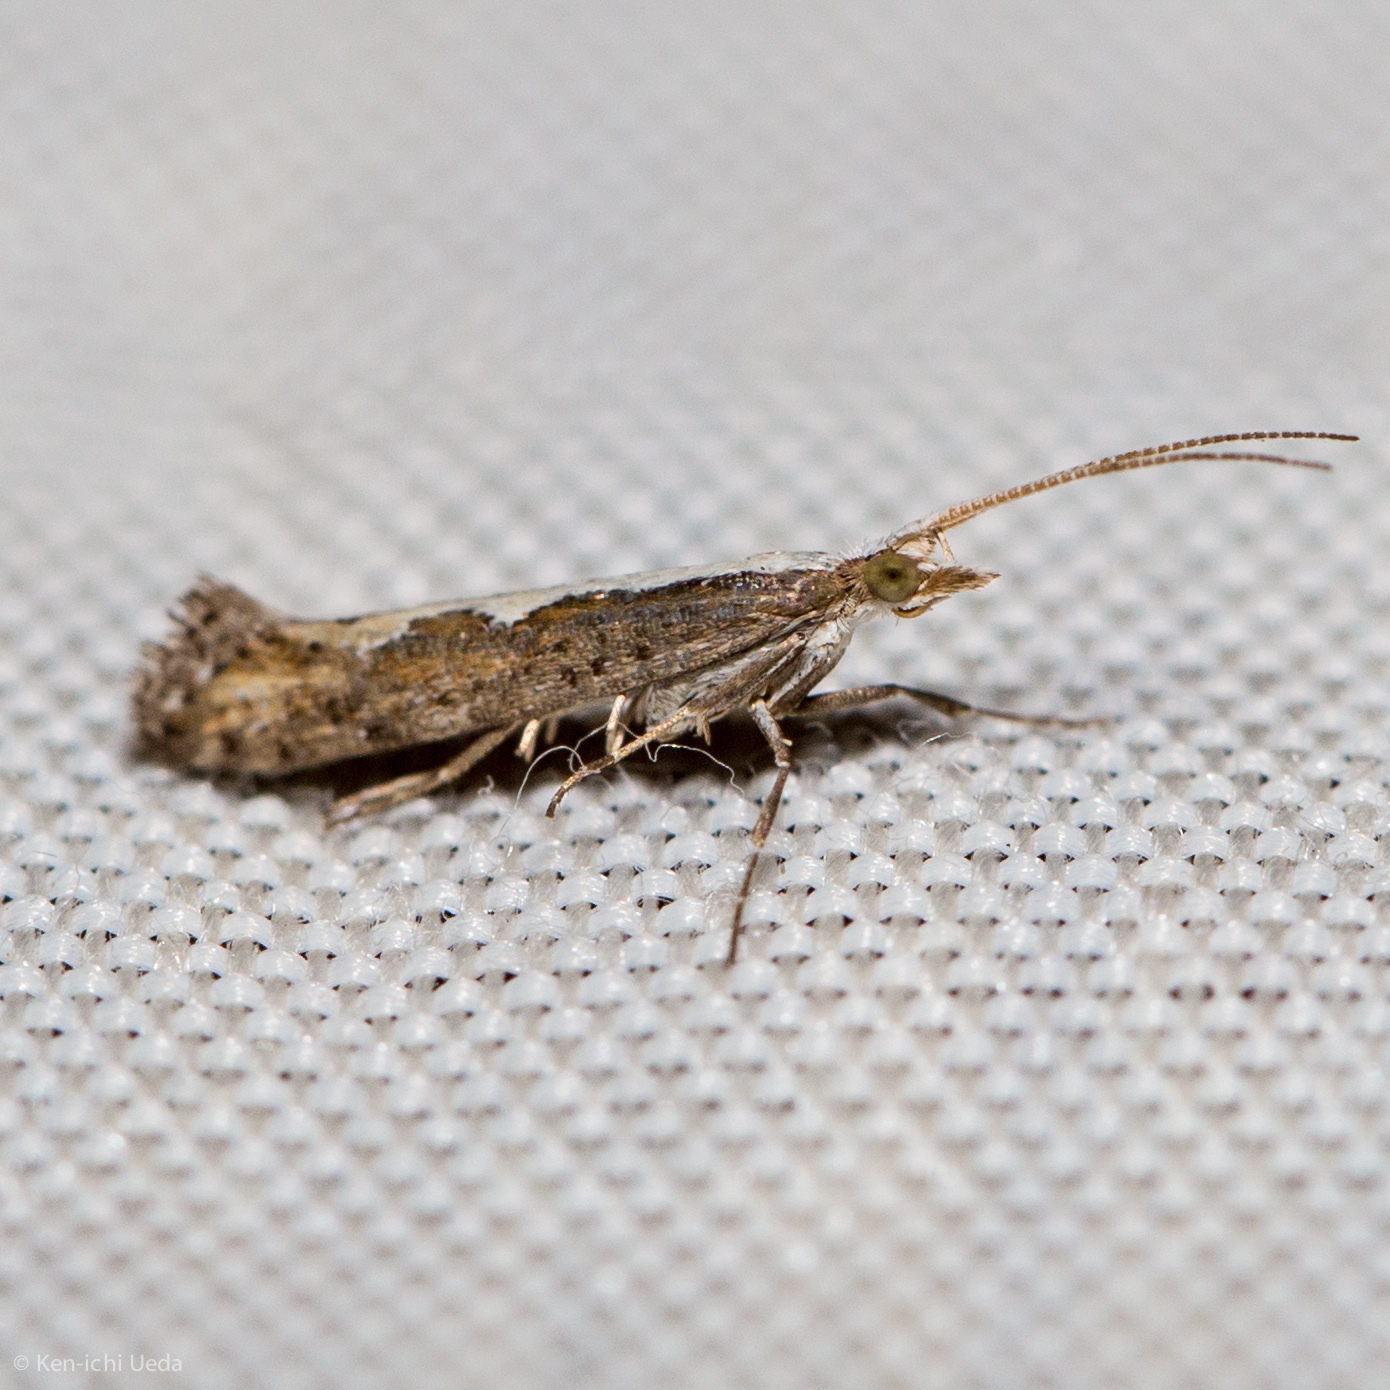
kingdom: Animalia
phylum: Arthropoda
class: Insecta
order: Lepidoptera
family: Plutellidae
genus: Plutella
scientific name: Plutella xylostella
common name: Diamond-back moth
